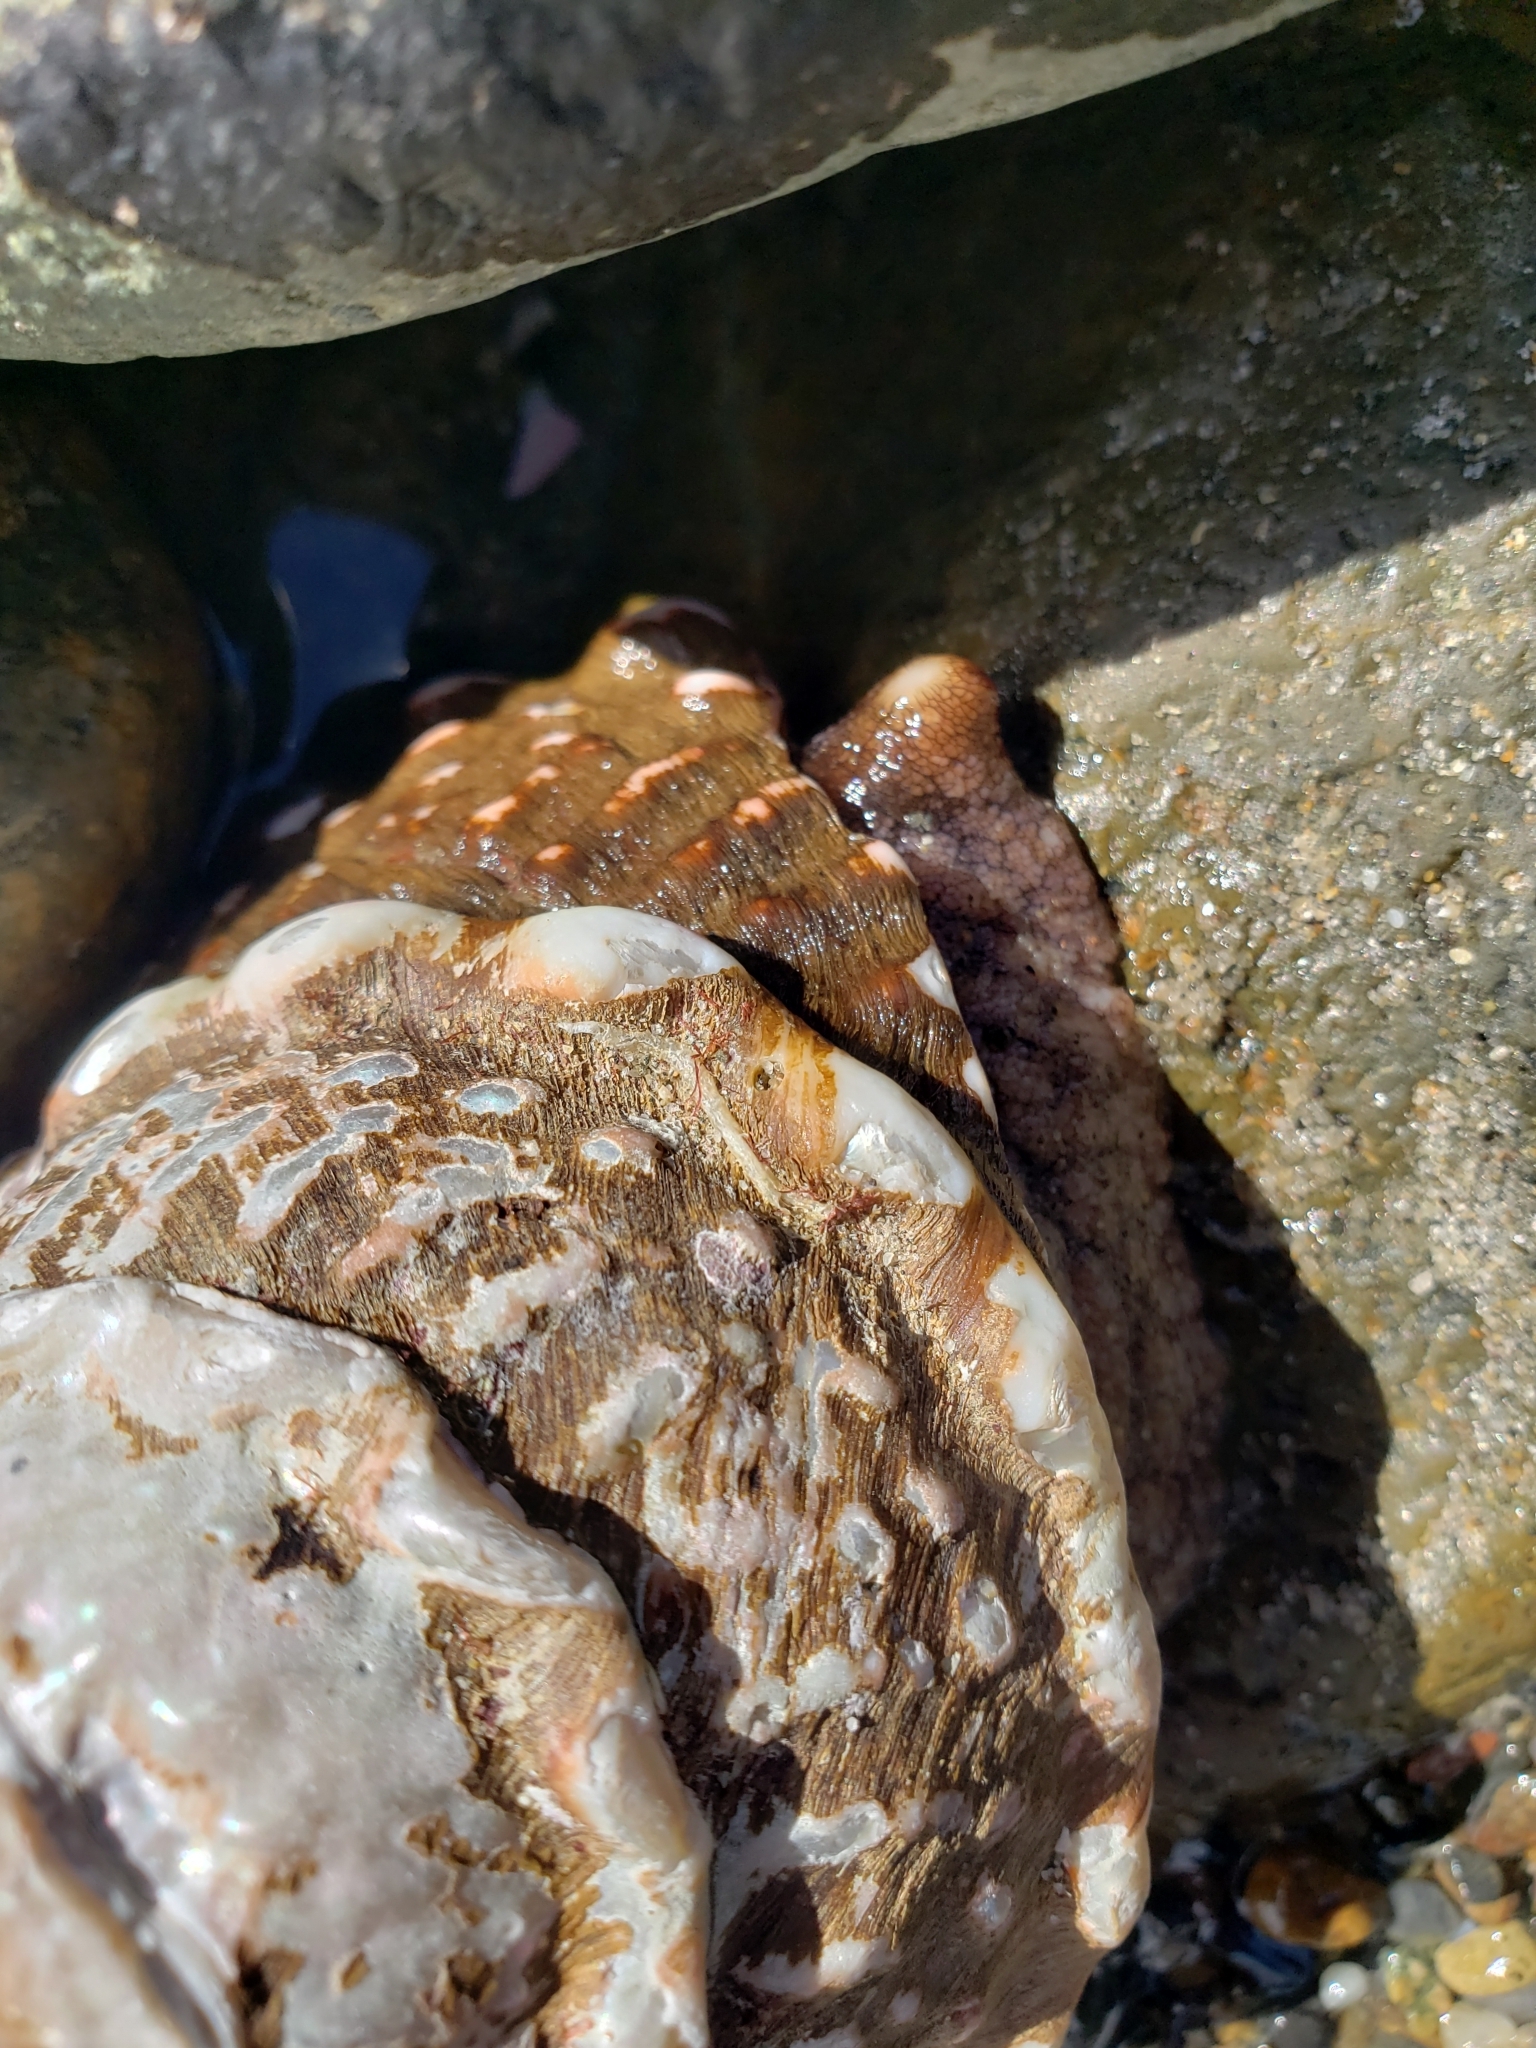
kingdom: Animalia
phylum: Mollusca
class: Gastropoda
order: Trochida
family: Turbinidae
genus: Megastraea
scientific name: Megastraea undosa
